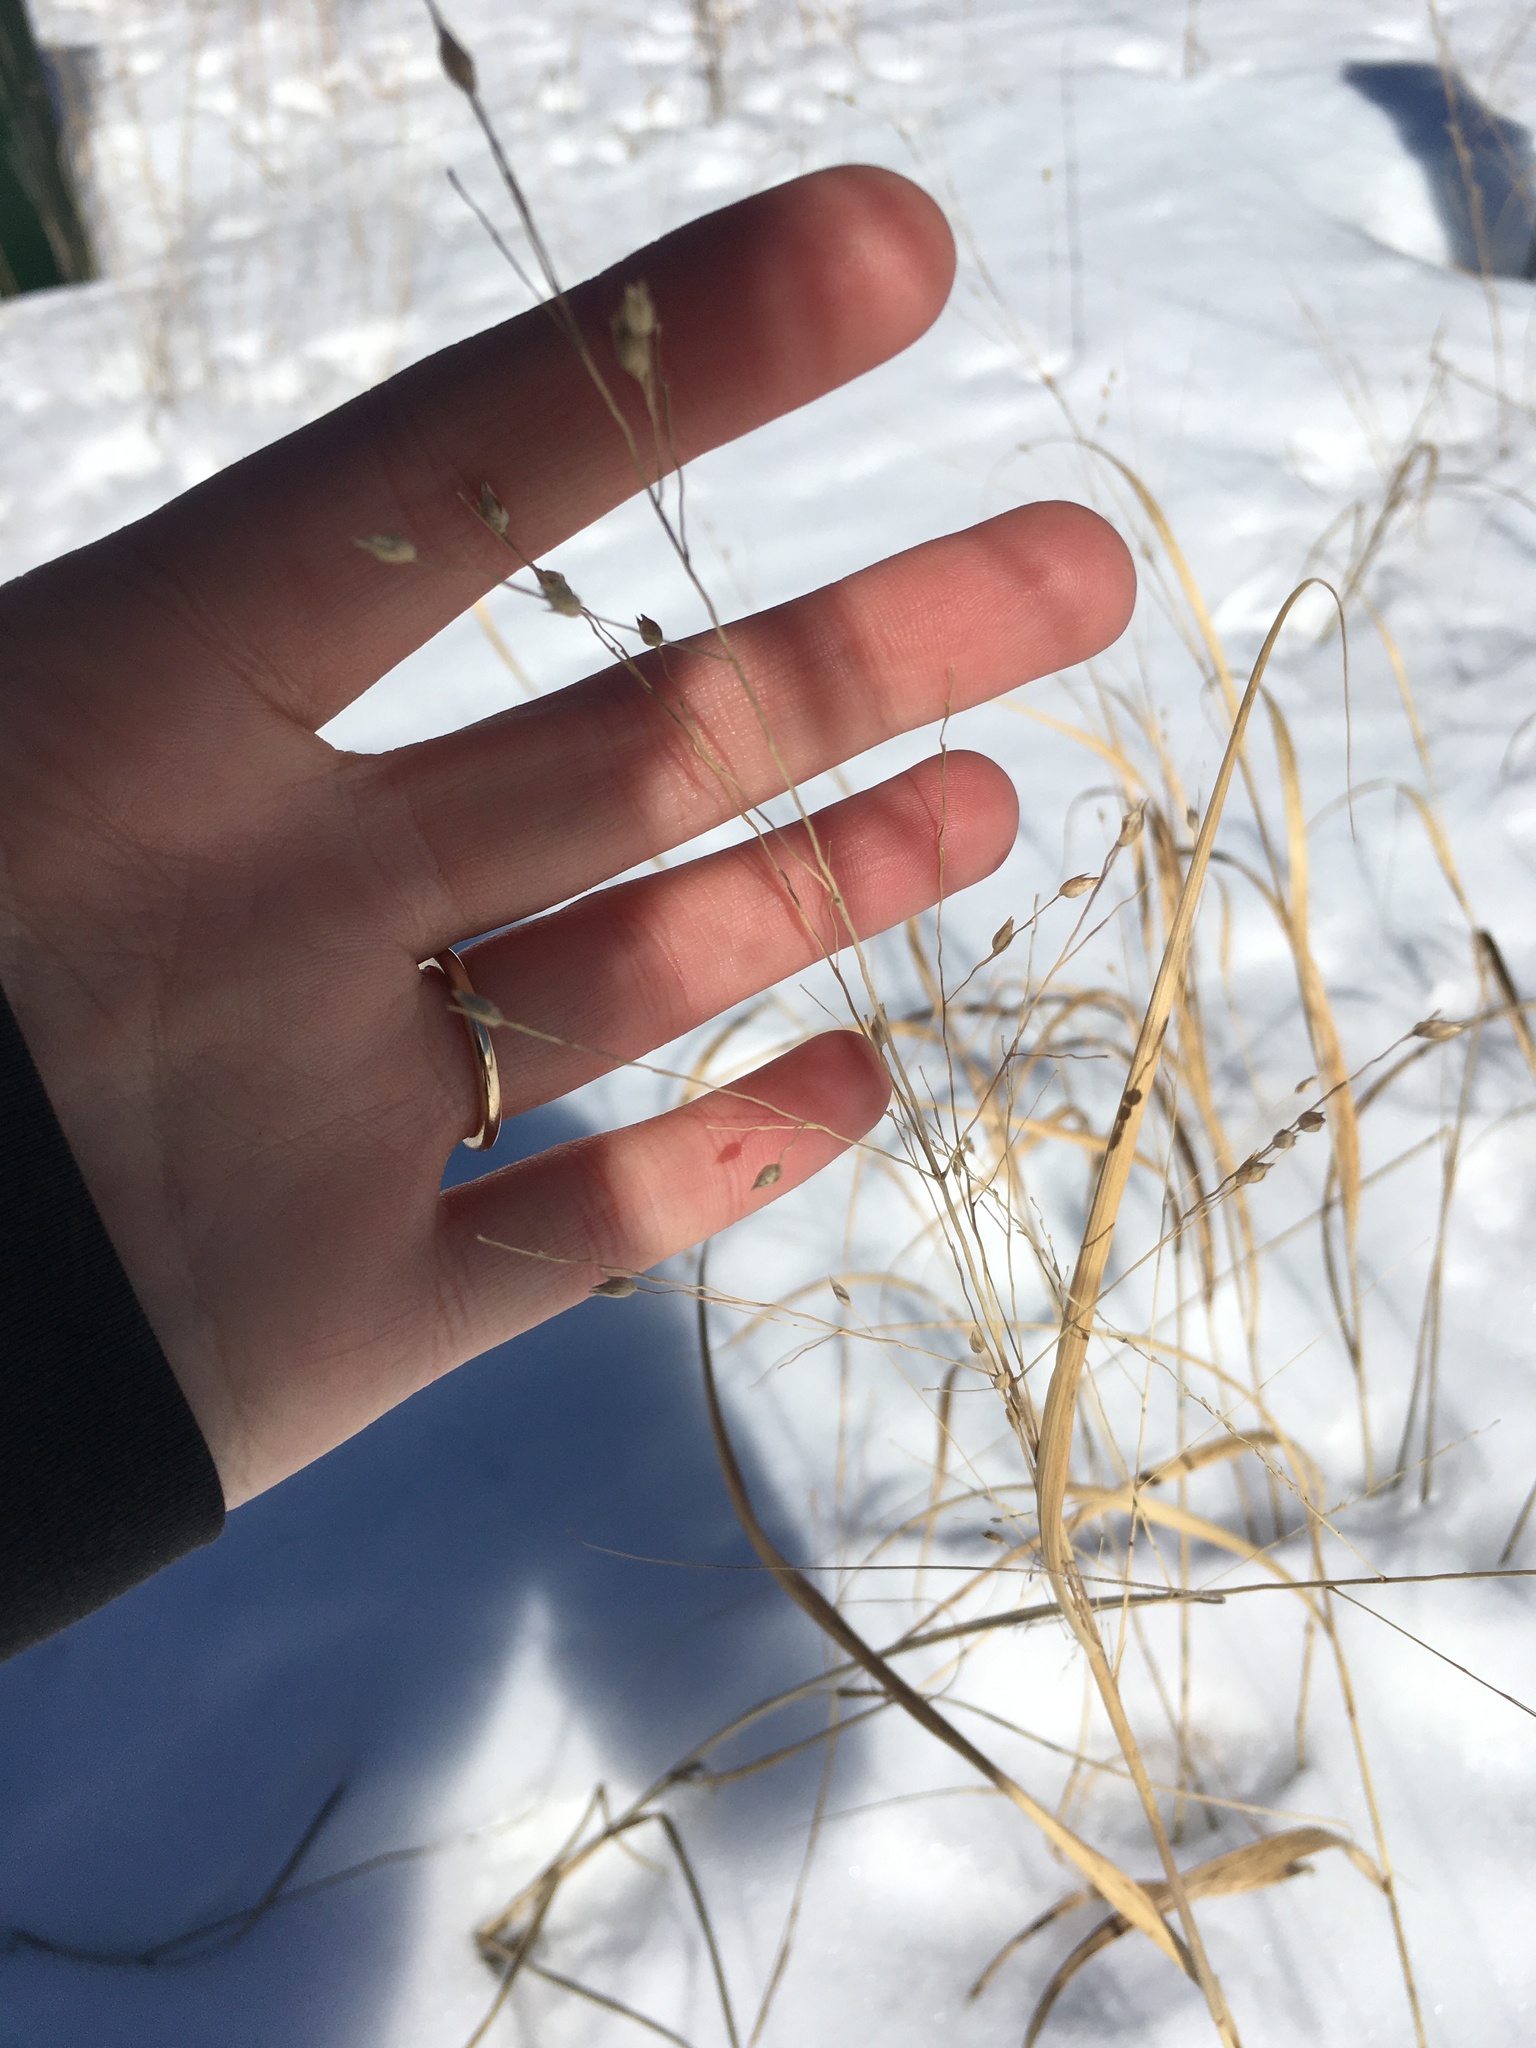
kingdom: Plantae
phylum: Tracheophyta
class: Liliopsida
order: Poales
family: Poaceae
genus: Panicum
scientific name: Panicum virgatum
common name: Switchgrass
